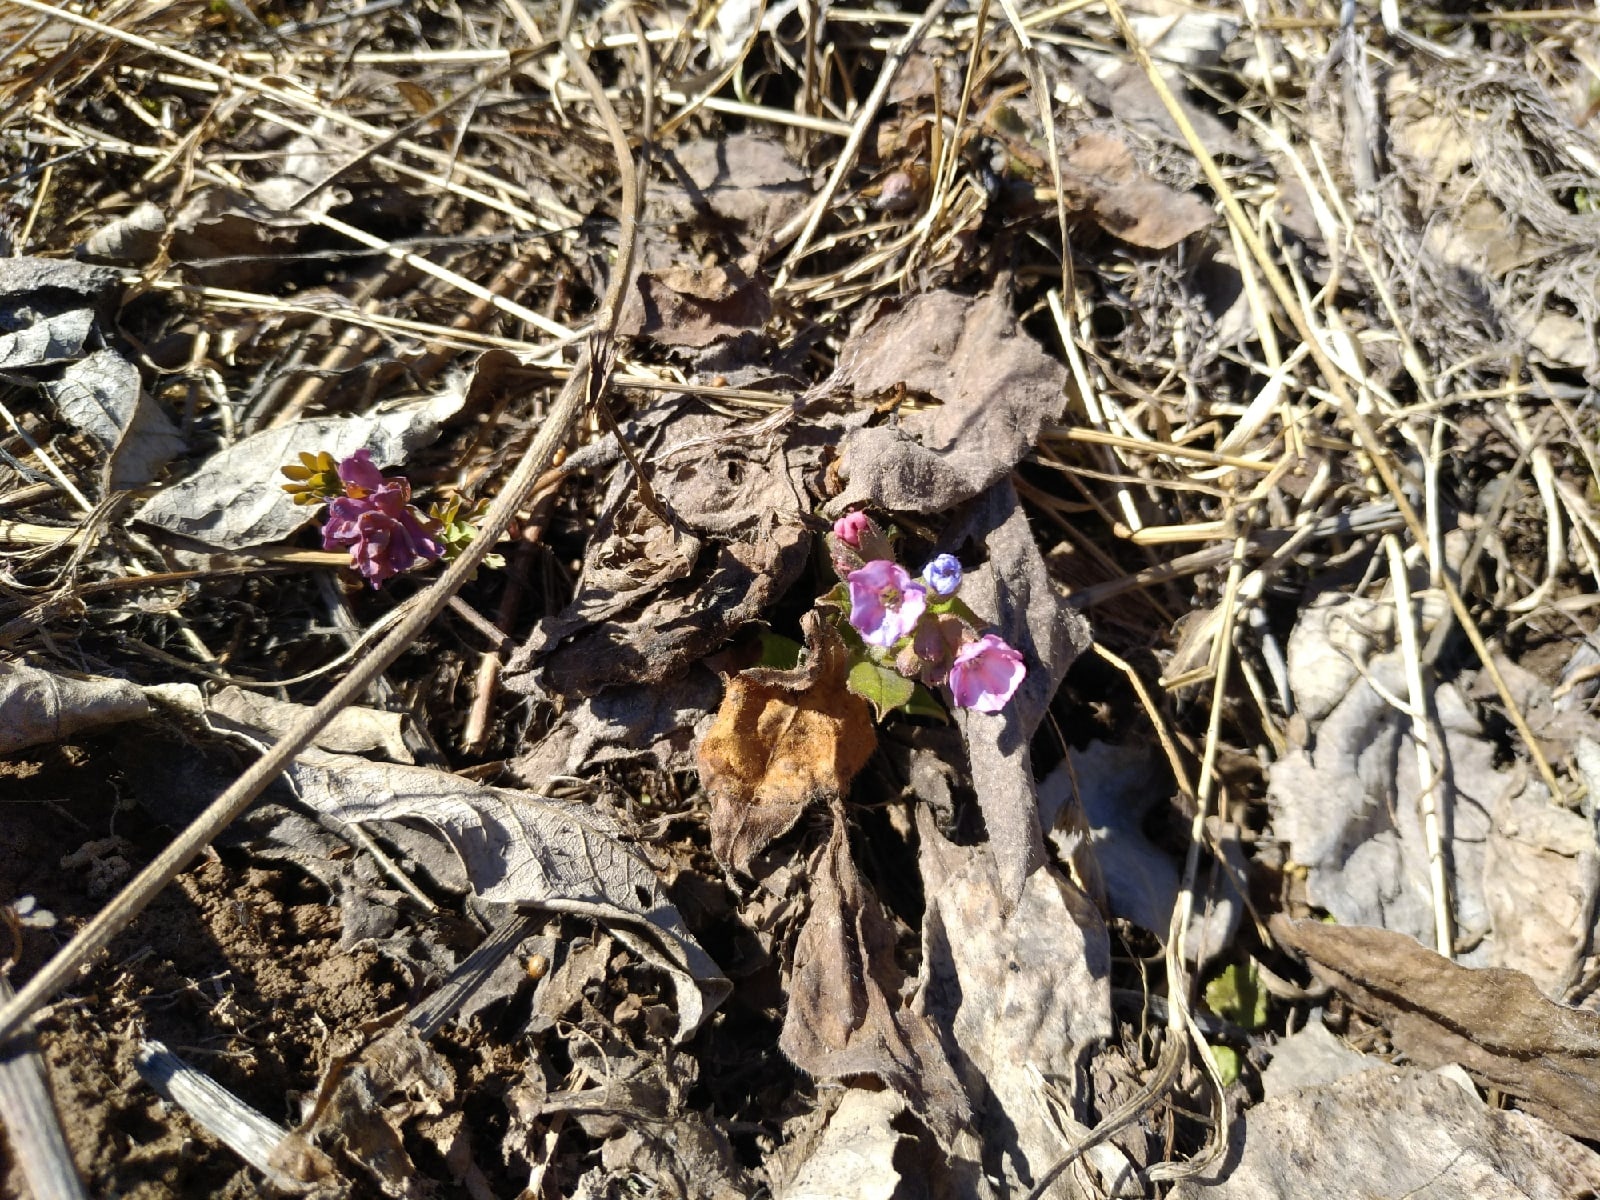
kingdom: Plantae
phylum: Tracheophyta
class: Magnoliopsida
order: Boraginales
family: Boraginaceae
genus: Pulmonaria
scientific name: Pulmonaria obscura
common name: Suffolk lungwort
